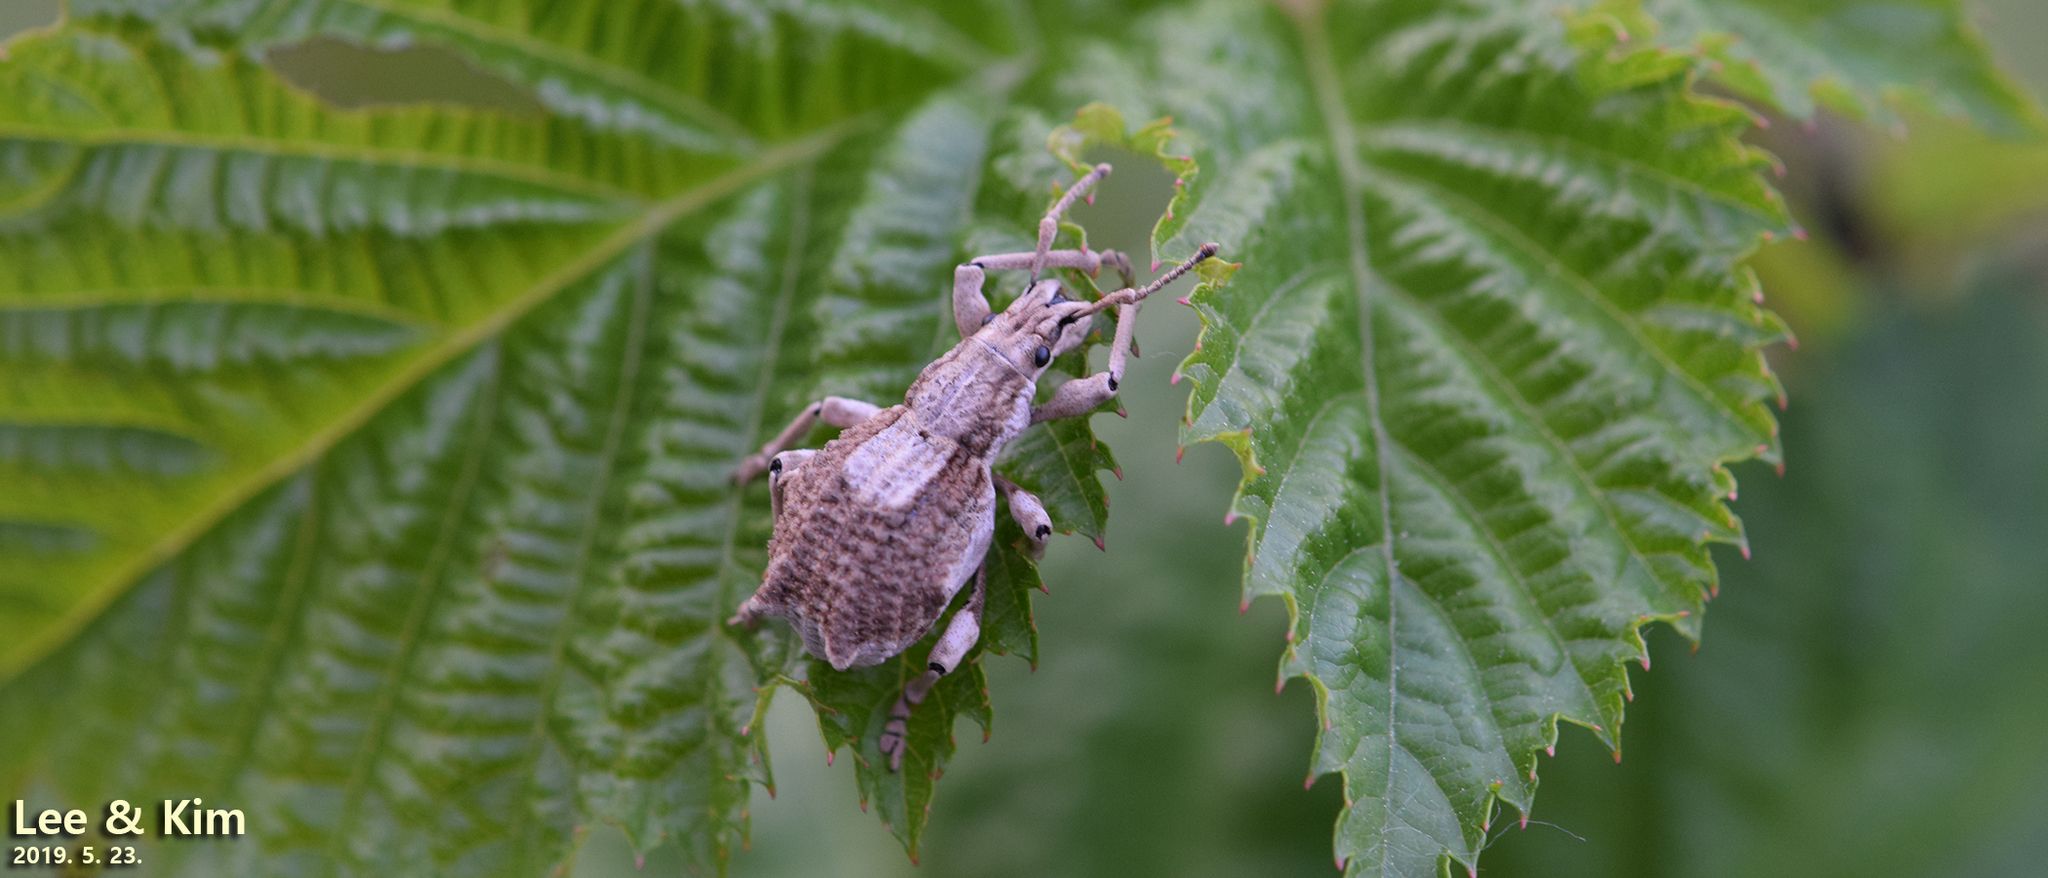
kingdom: Animalia
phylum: Arthropoda
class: Insecta
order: Coleoptera
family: Curculionidae
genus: Episomus
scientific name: Episomus turritus
